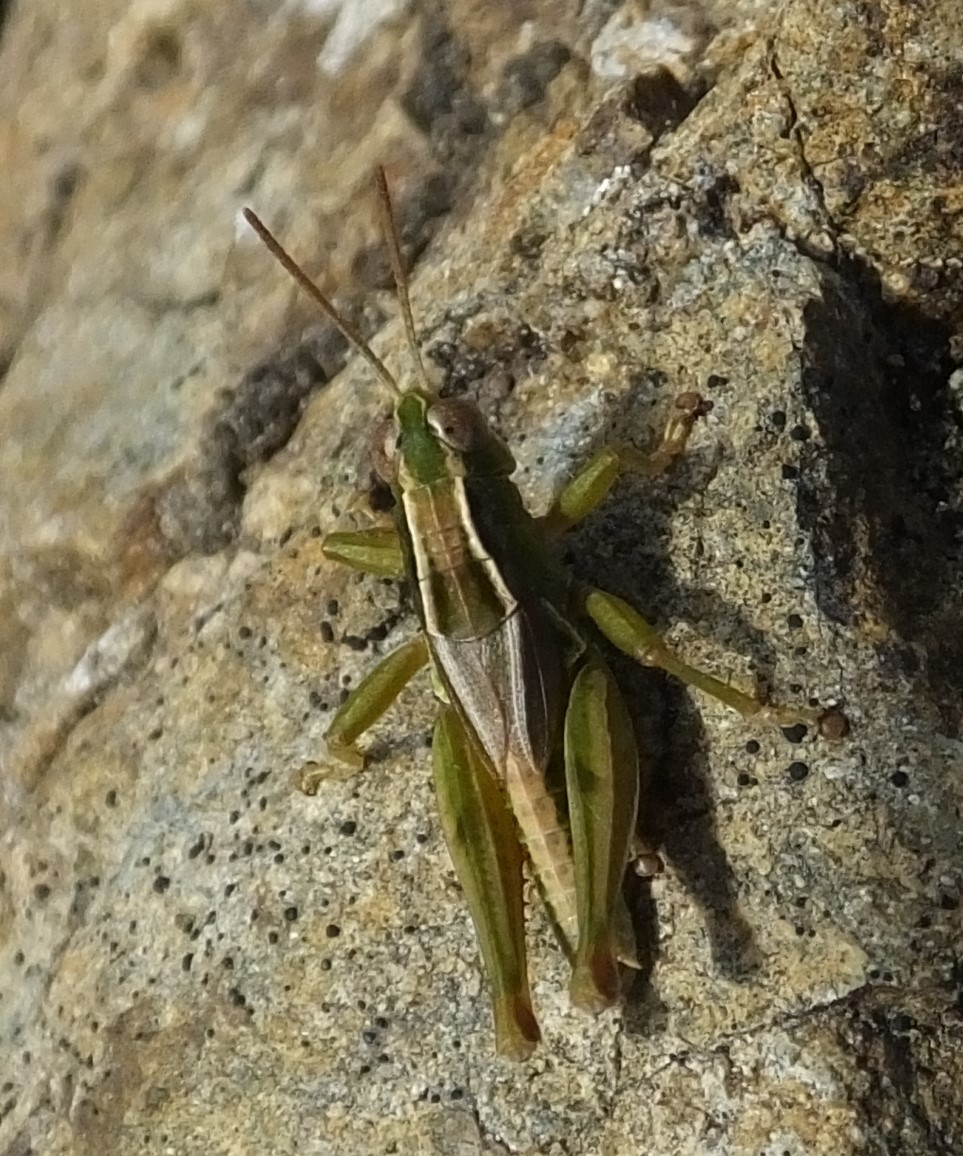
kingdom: Animalia
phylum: Arthropoda
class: Insecta
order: Orthoptera
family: Acrididae
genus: Phaulacridium
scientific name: Phaulacridium marginale
